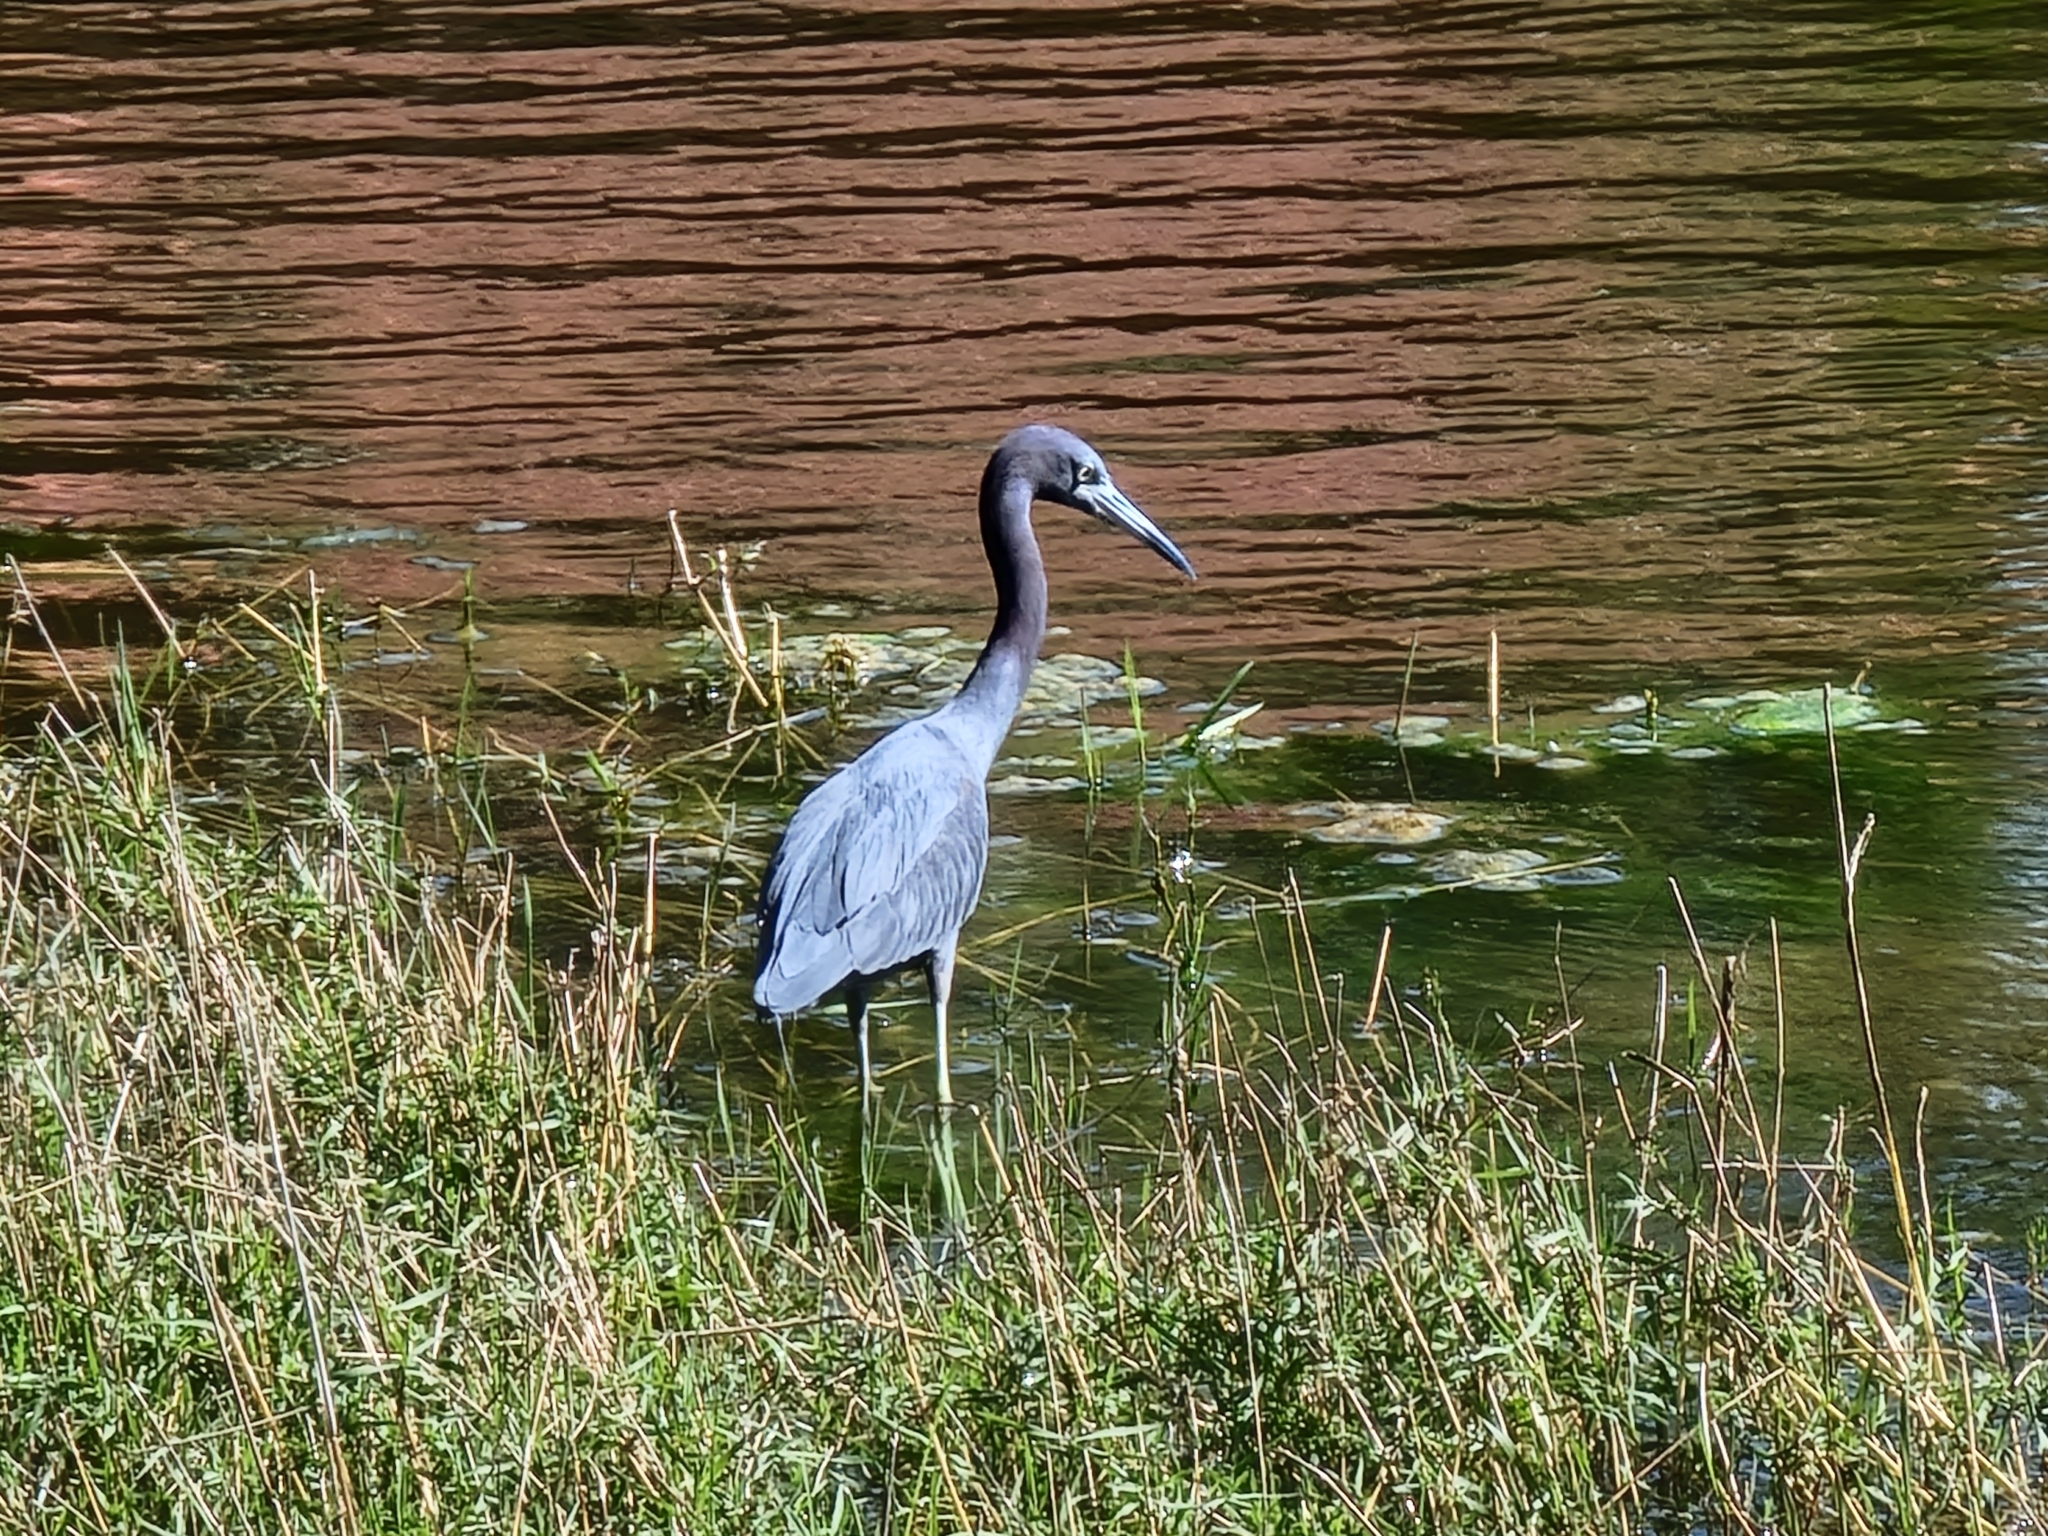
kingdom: Animalia
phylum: Chordata
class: Aves
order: Pelecaniformes
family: Ardeidae
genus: Egretta
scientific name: Egretta caerulea
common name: Little blue heron
